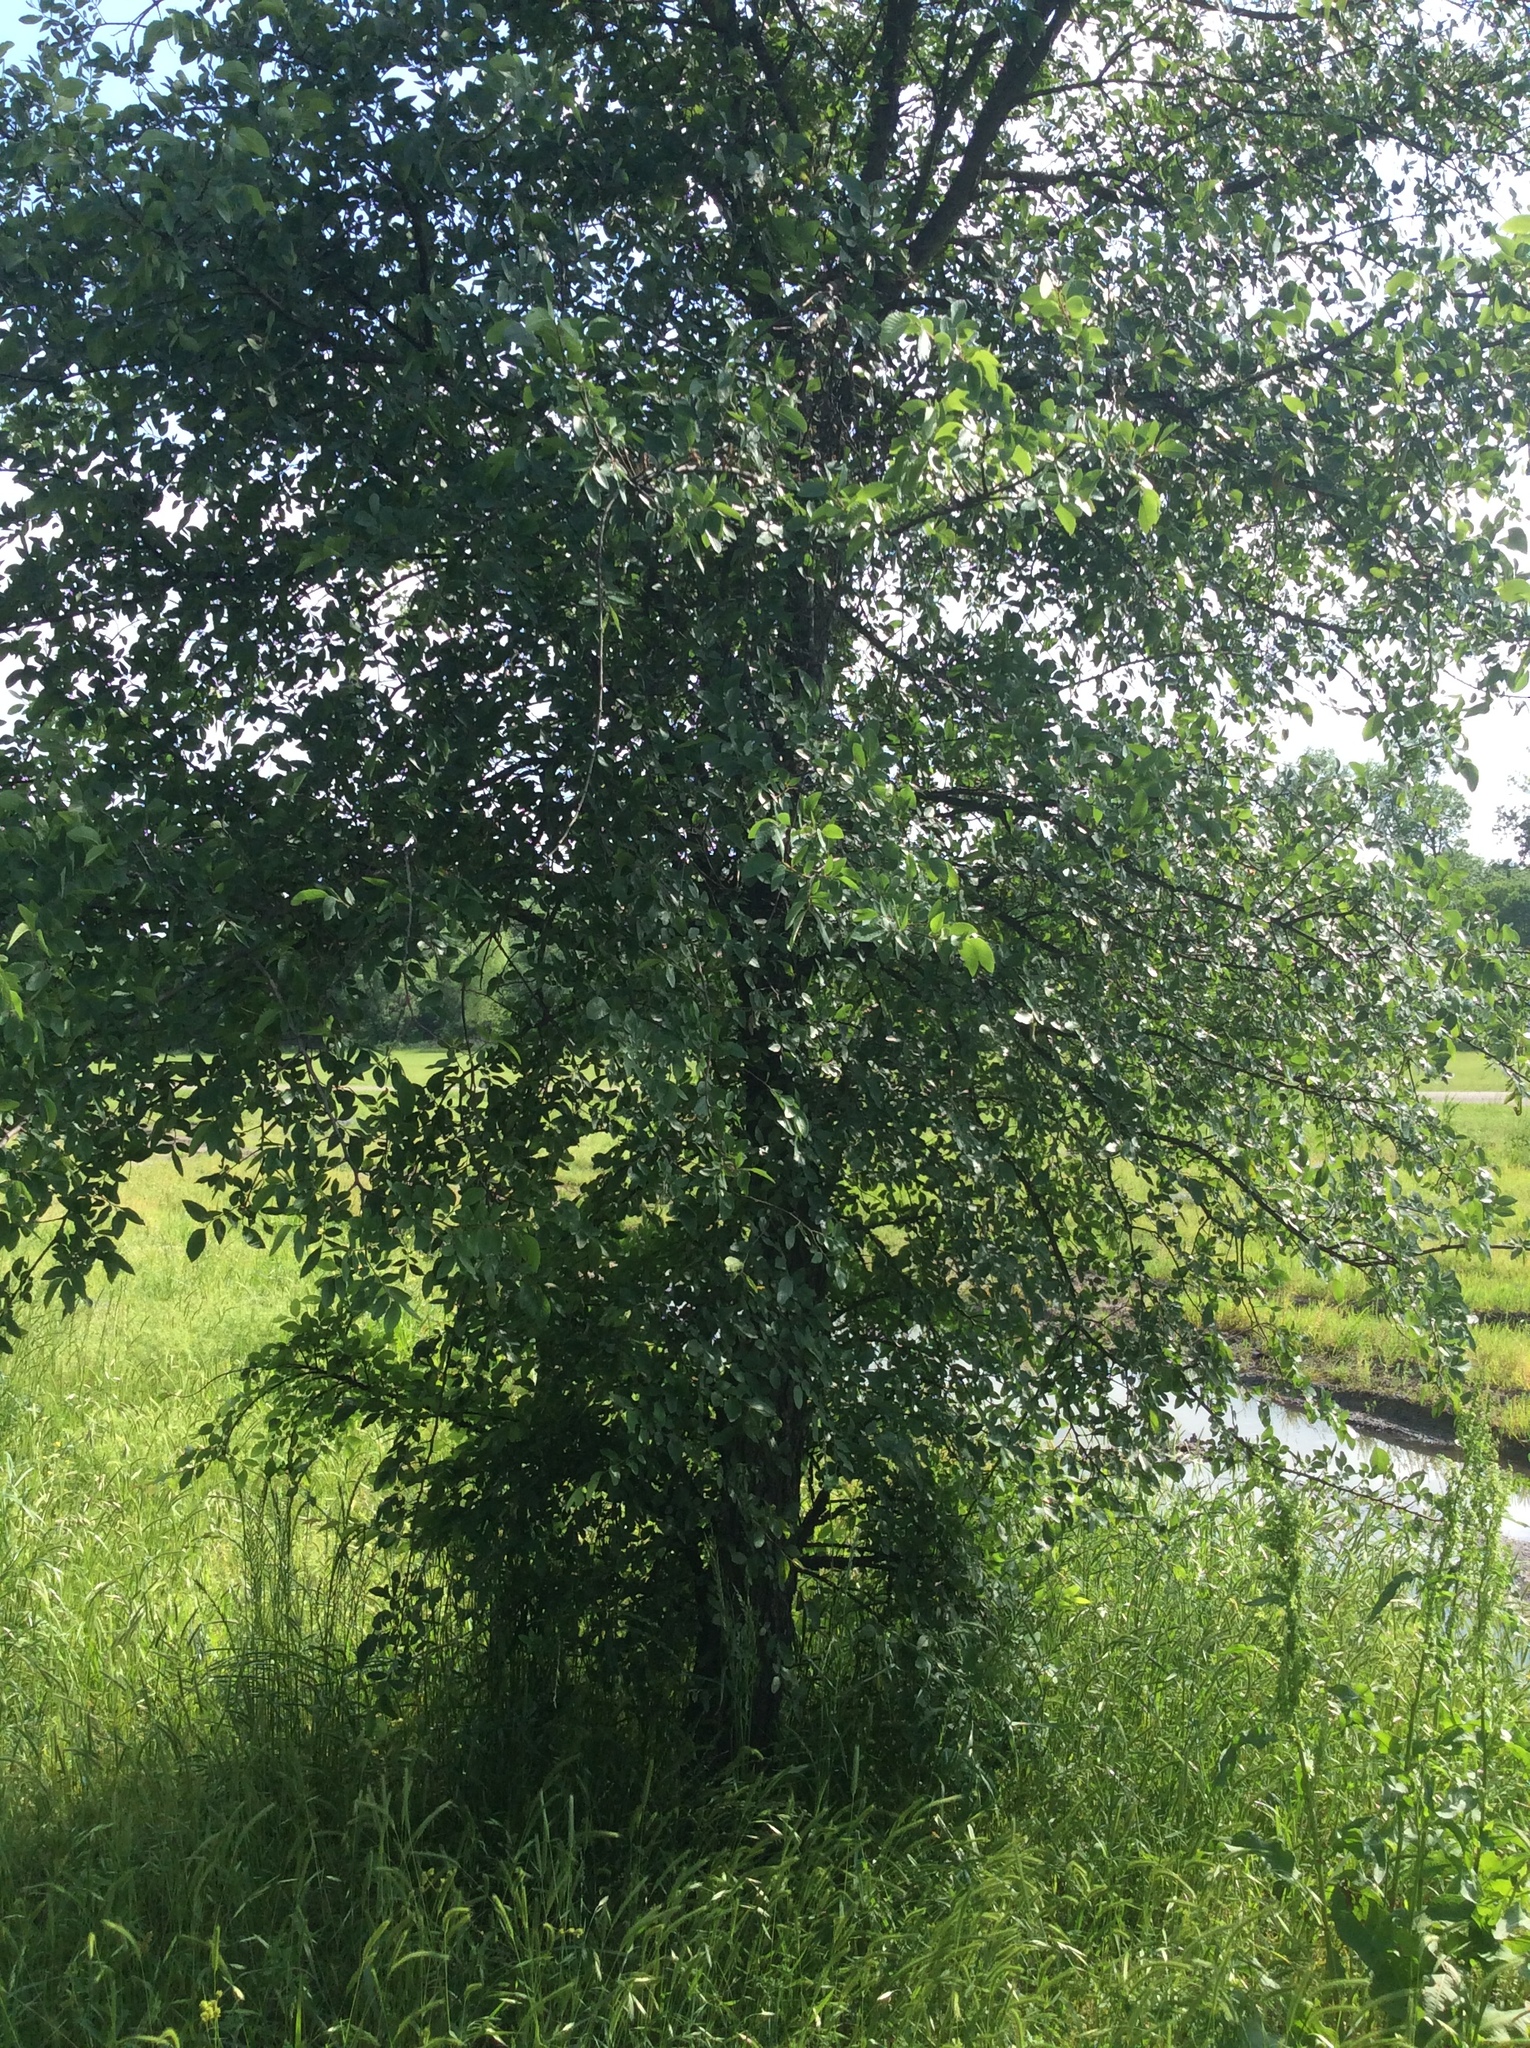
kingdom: Plantae
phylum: Tracheophyta
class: Magnoliopsida
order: Rosales
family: Ulmaceae
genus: Ulmus
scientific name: Ulmus crassifolia
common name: Basket elm
